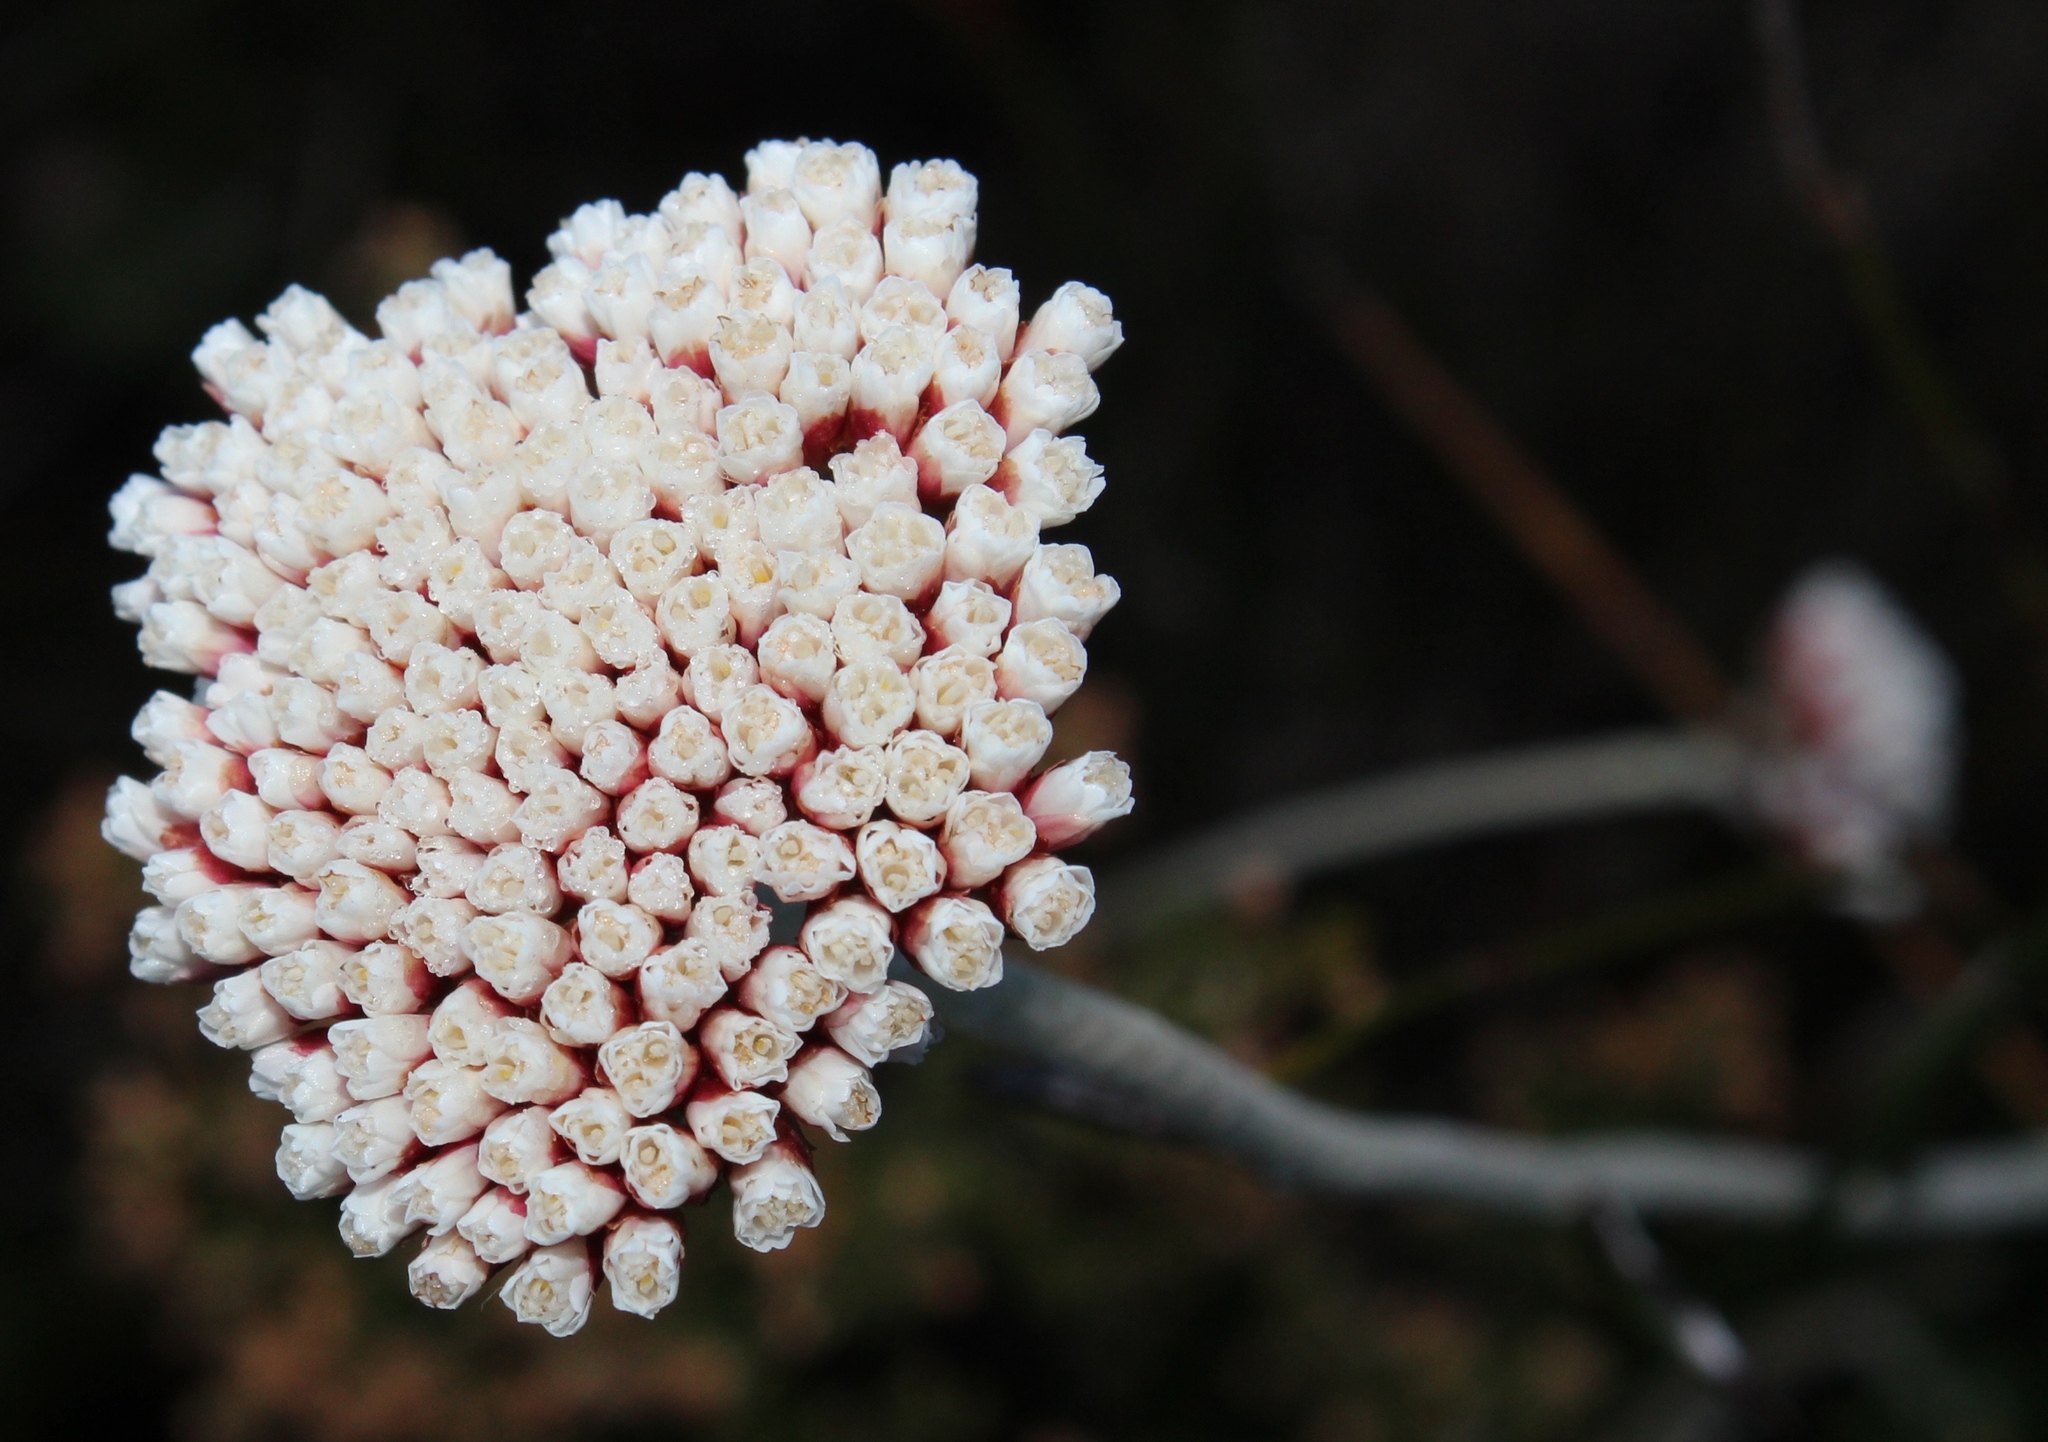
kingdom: Plantae
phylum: Tracheophyta
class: Magnoliopsida
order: Asterales
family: Asteraceae
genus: Anaxeton
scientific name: Anaxeton arborescens
